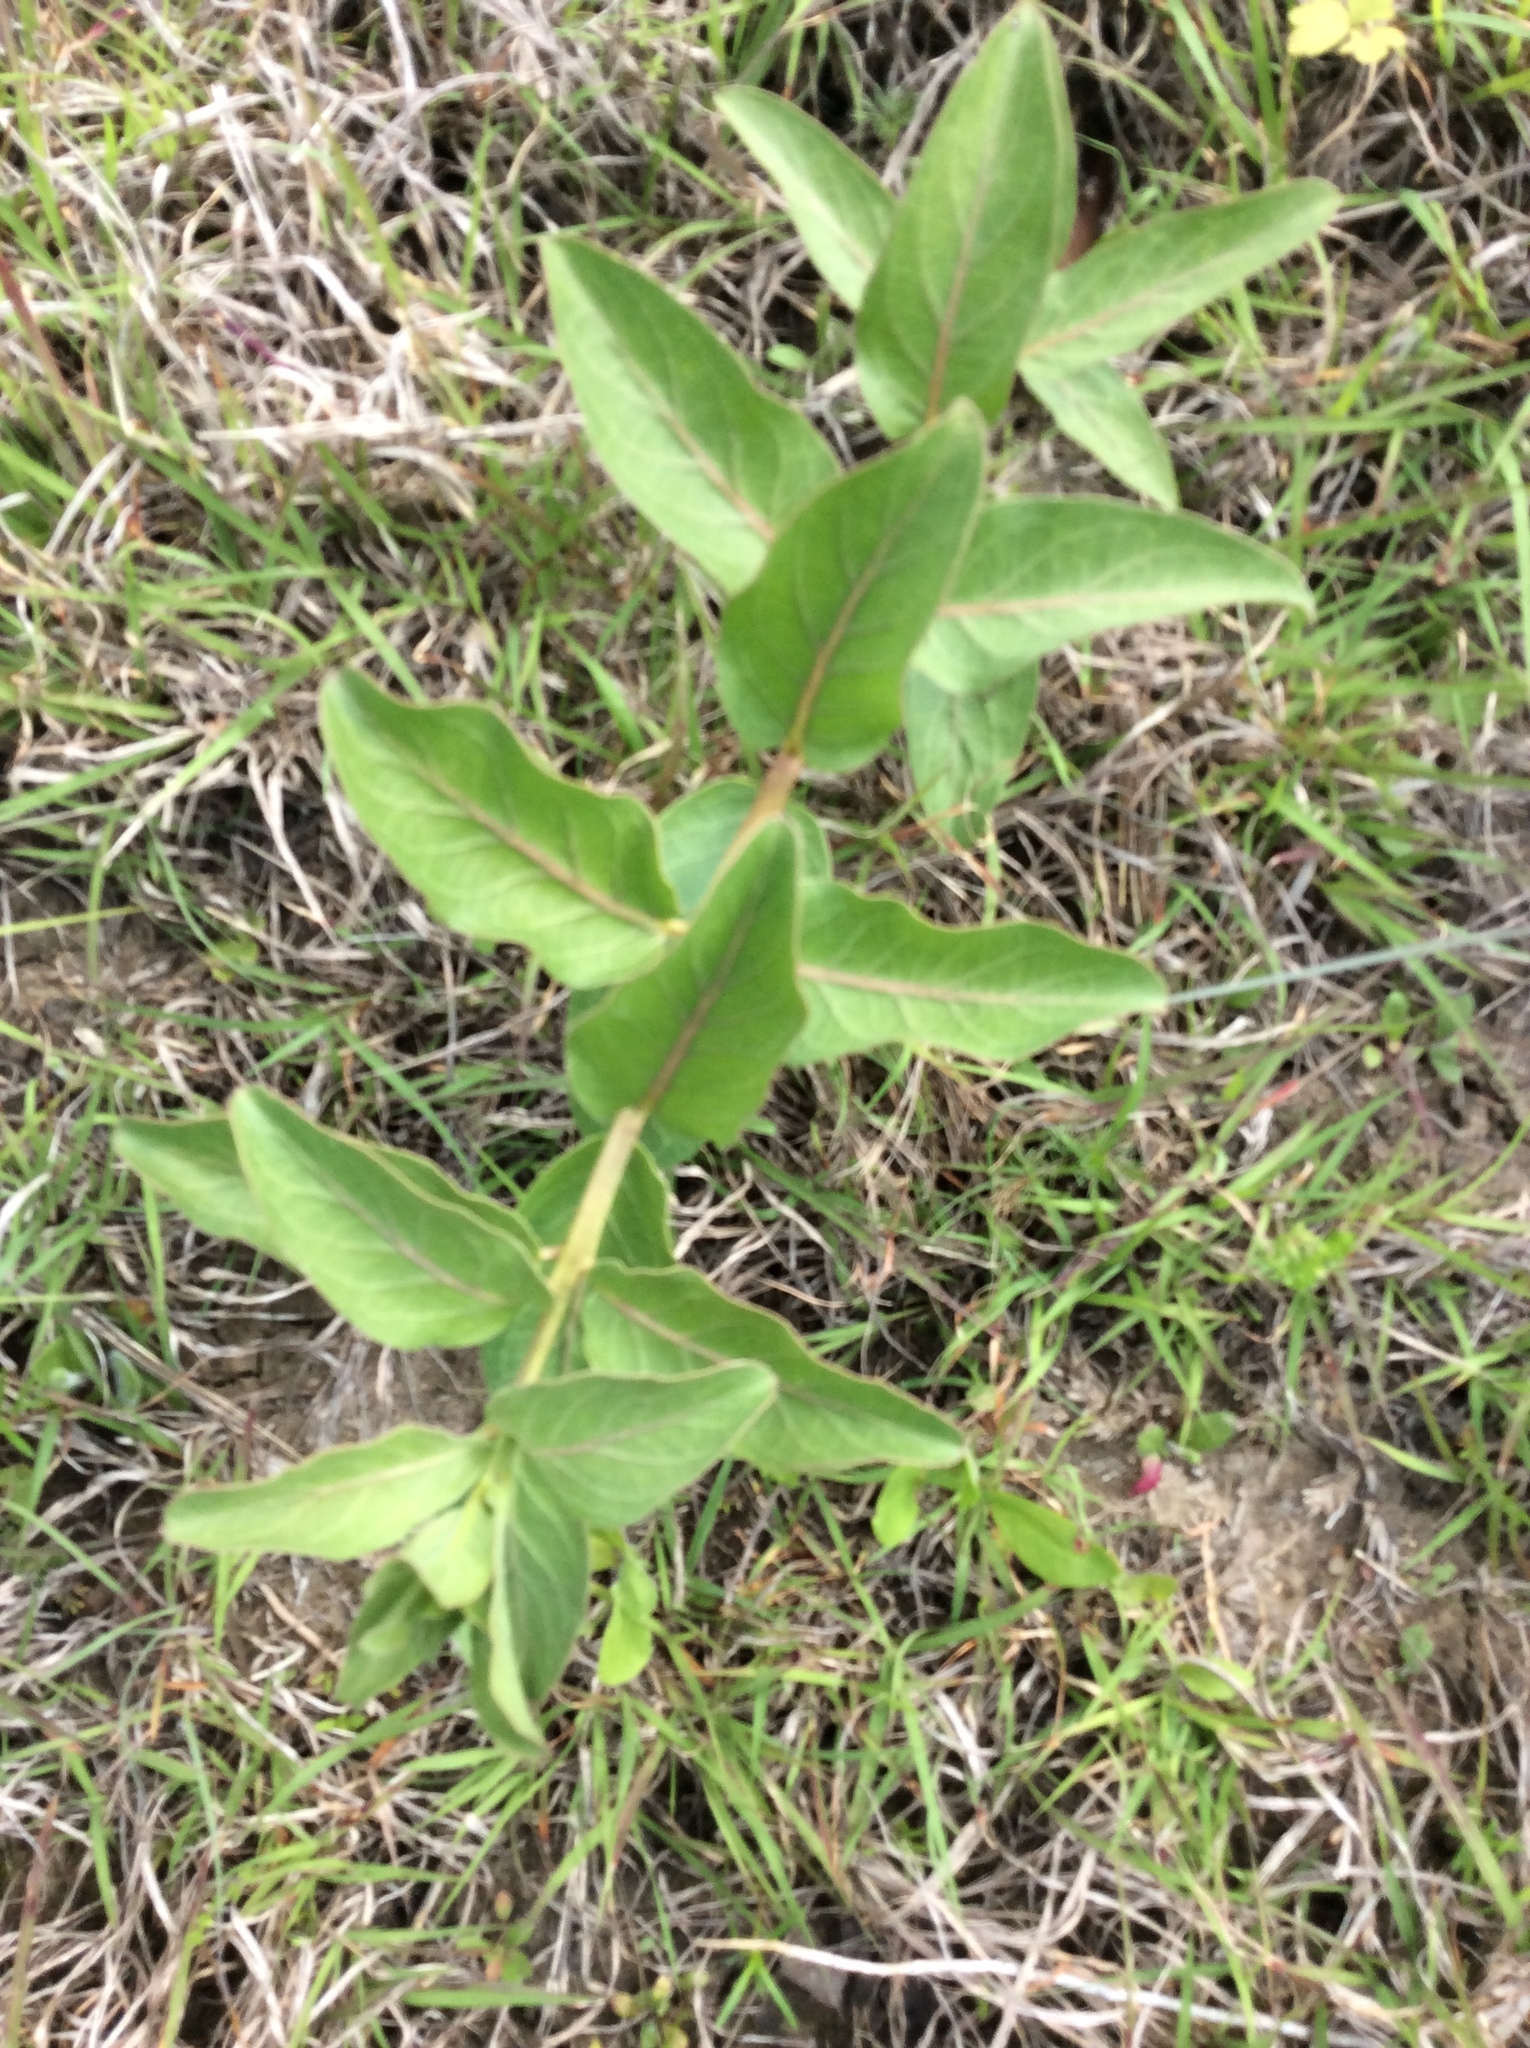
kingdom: Plantae
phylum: Tracheophyta
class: Magnoliopsida
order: Gentianales
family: Apocynaceae
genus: Asclepias
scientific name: Asclepias viridis
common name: Antelope-horns
